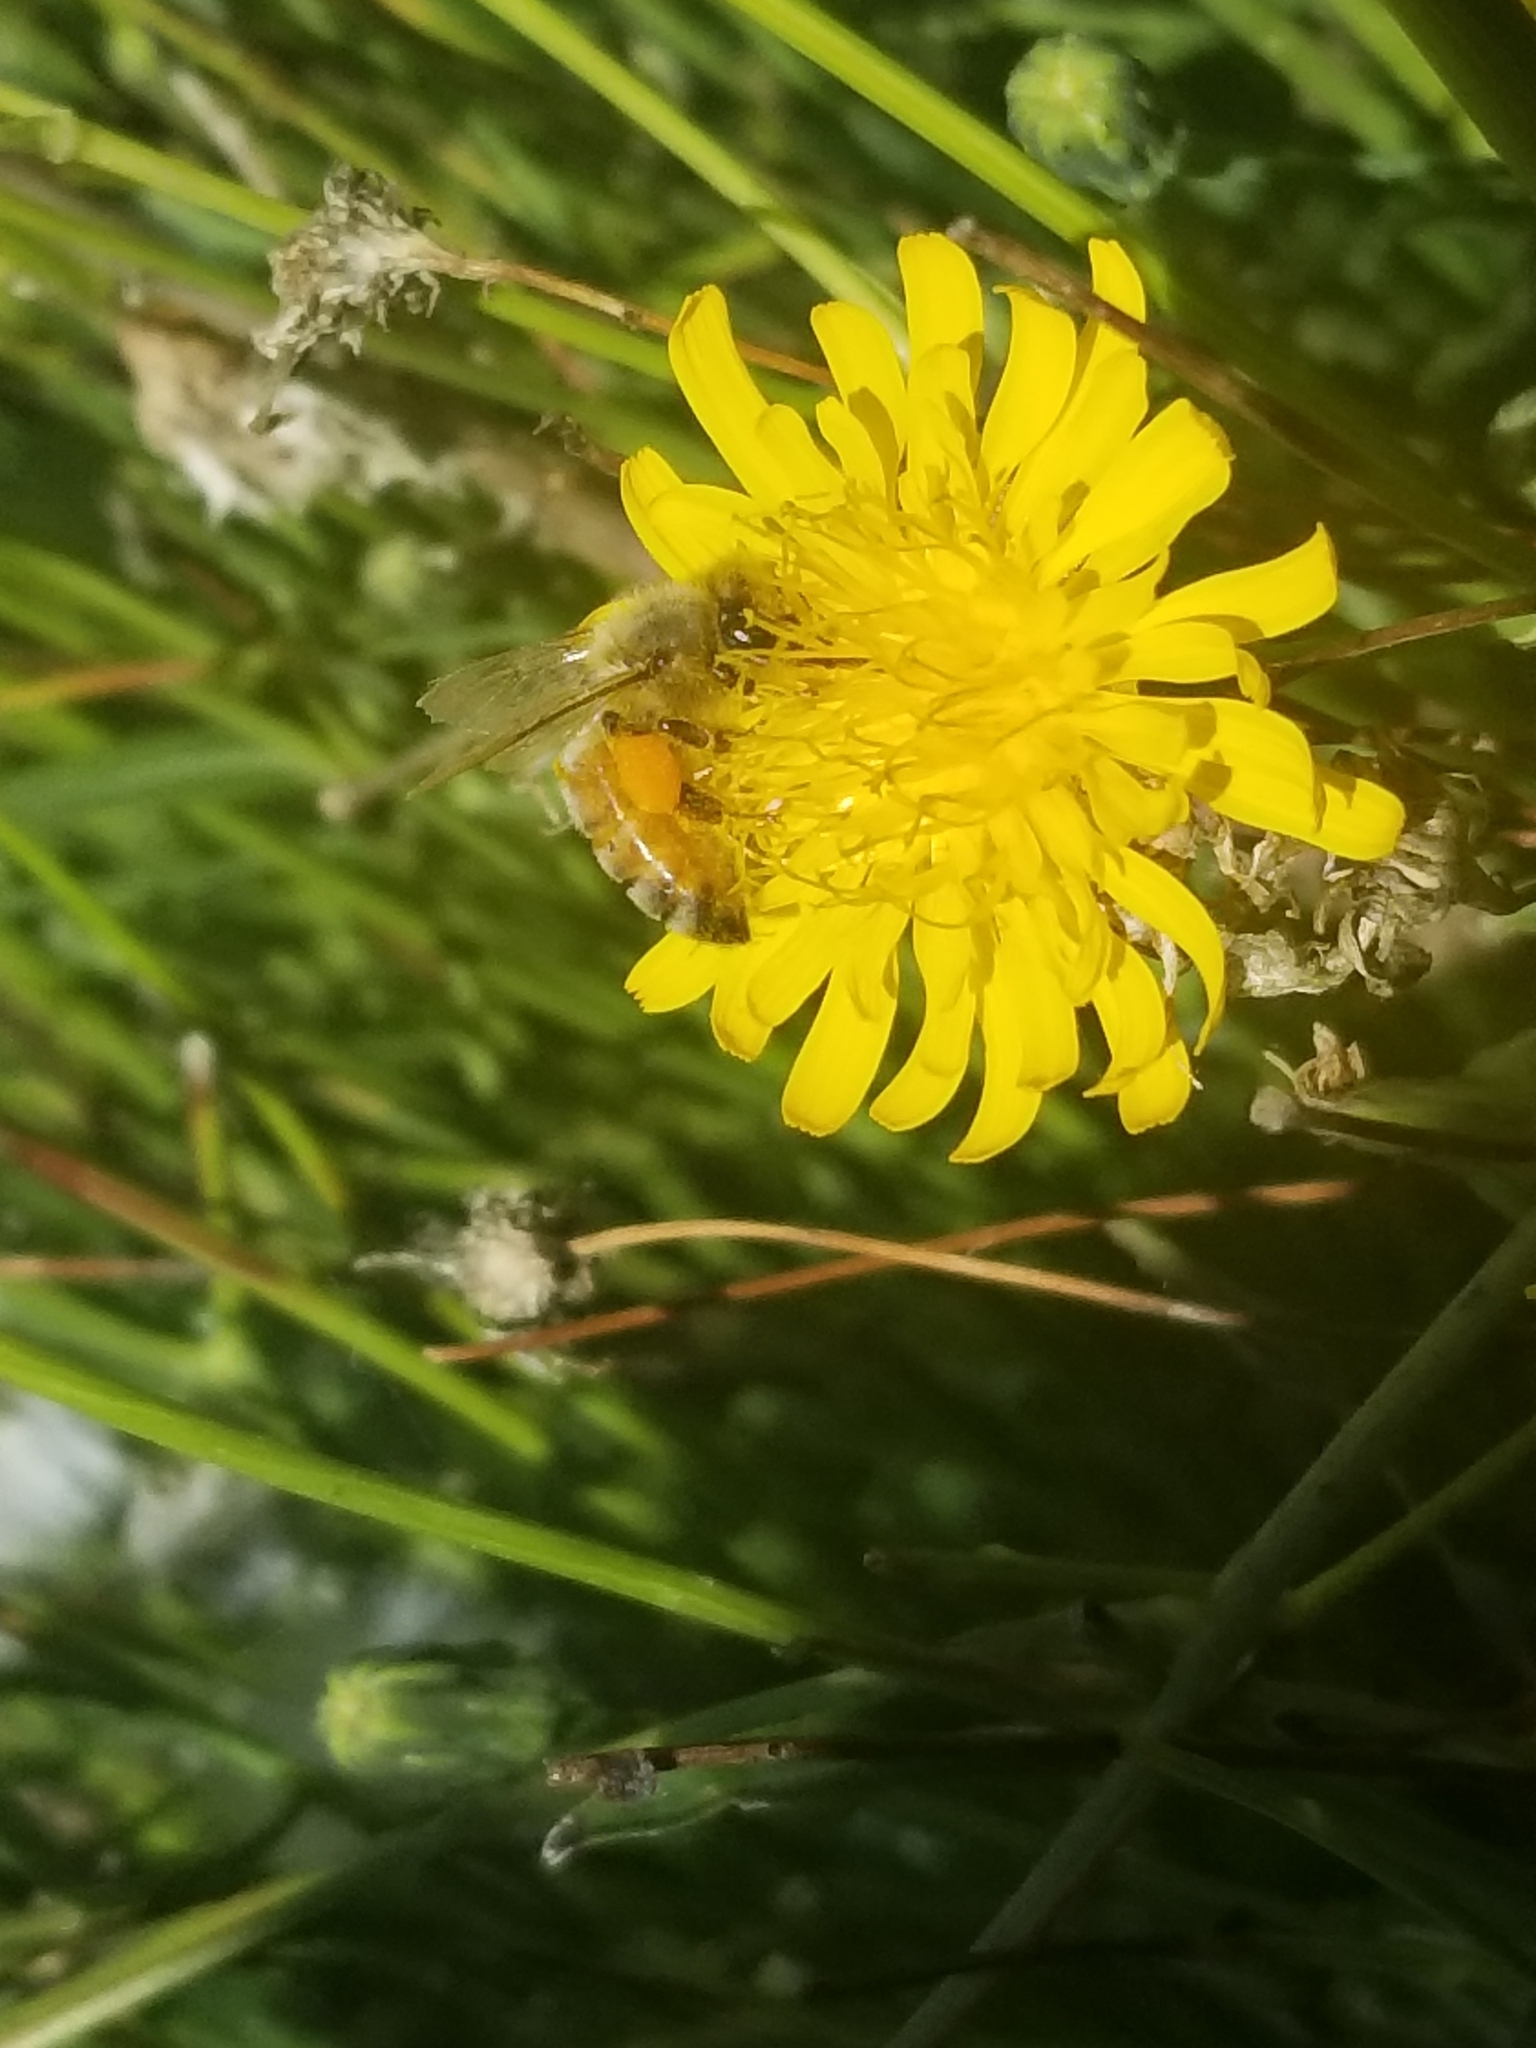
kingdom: Animalia
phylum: Arthropoda
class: Insecta
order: Hymenoptera
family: Apidae
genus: Apis
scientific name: Apis mellifera
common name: Honey bee
